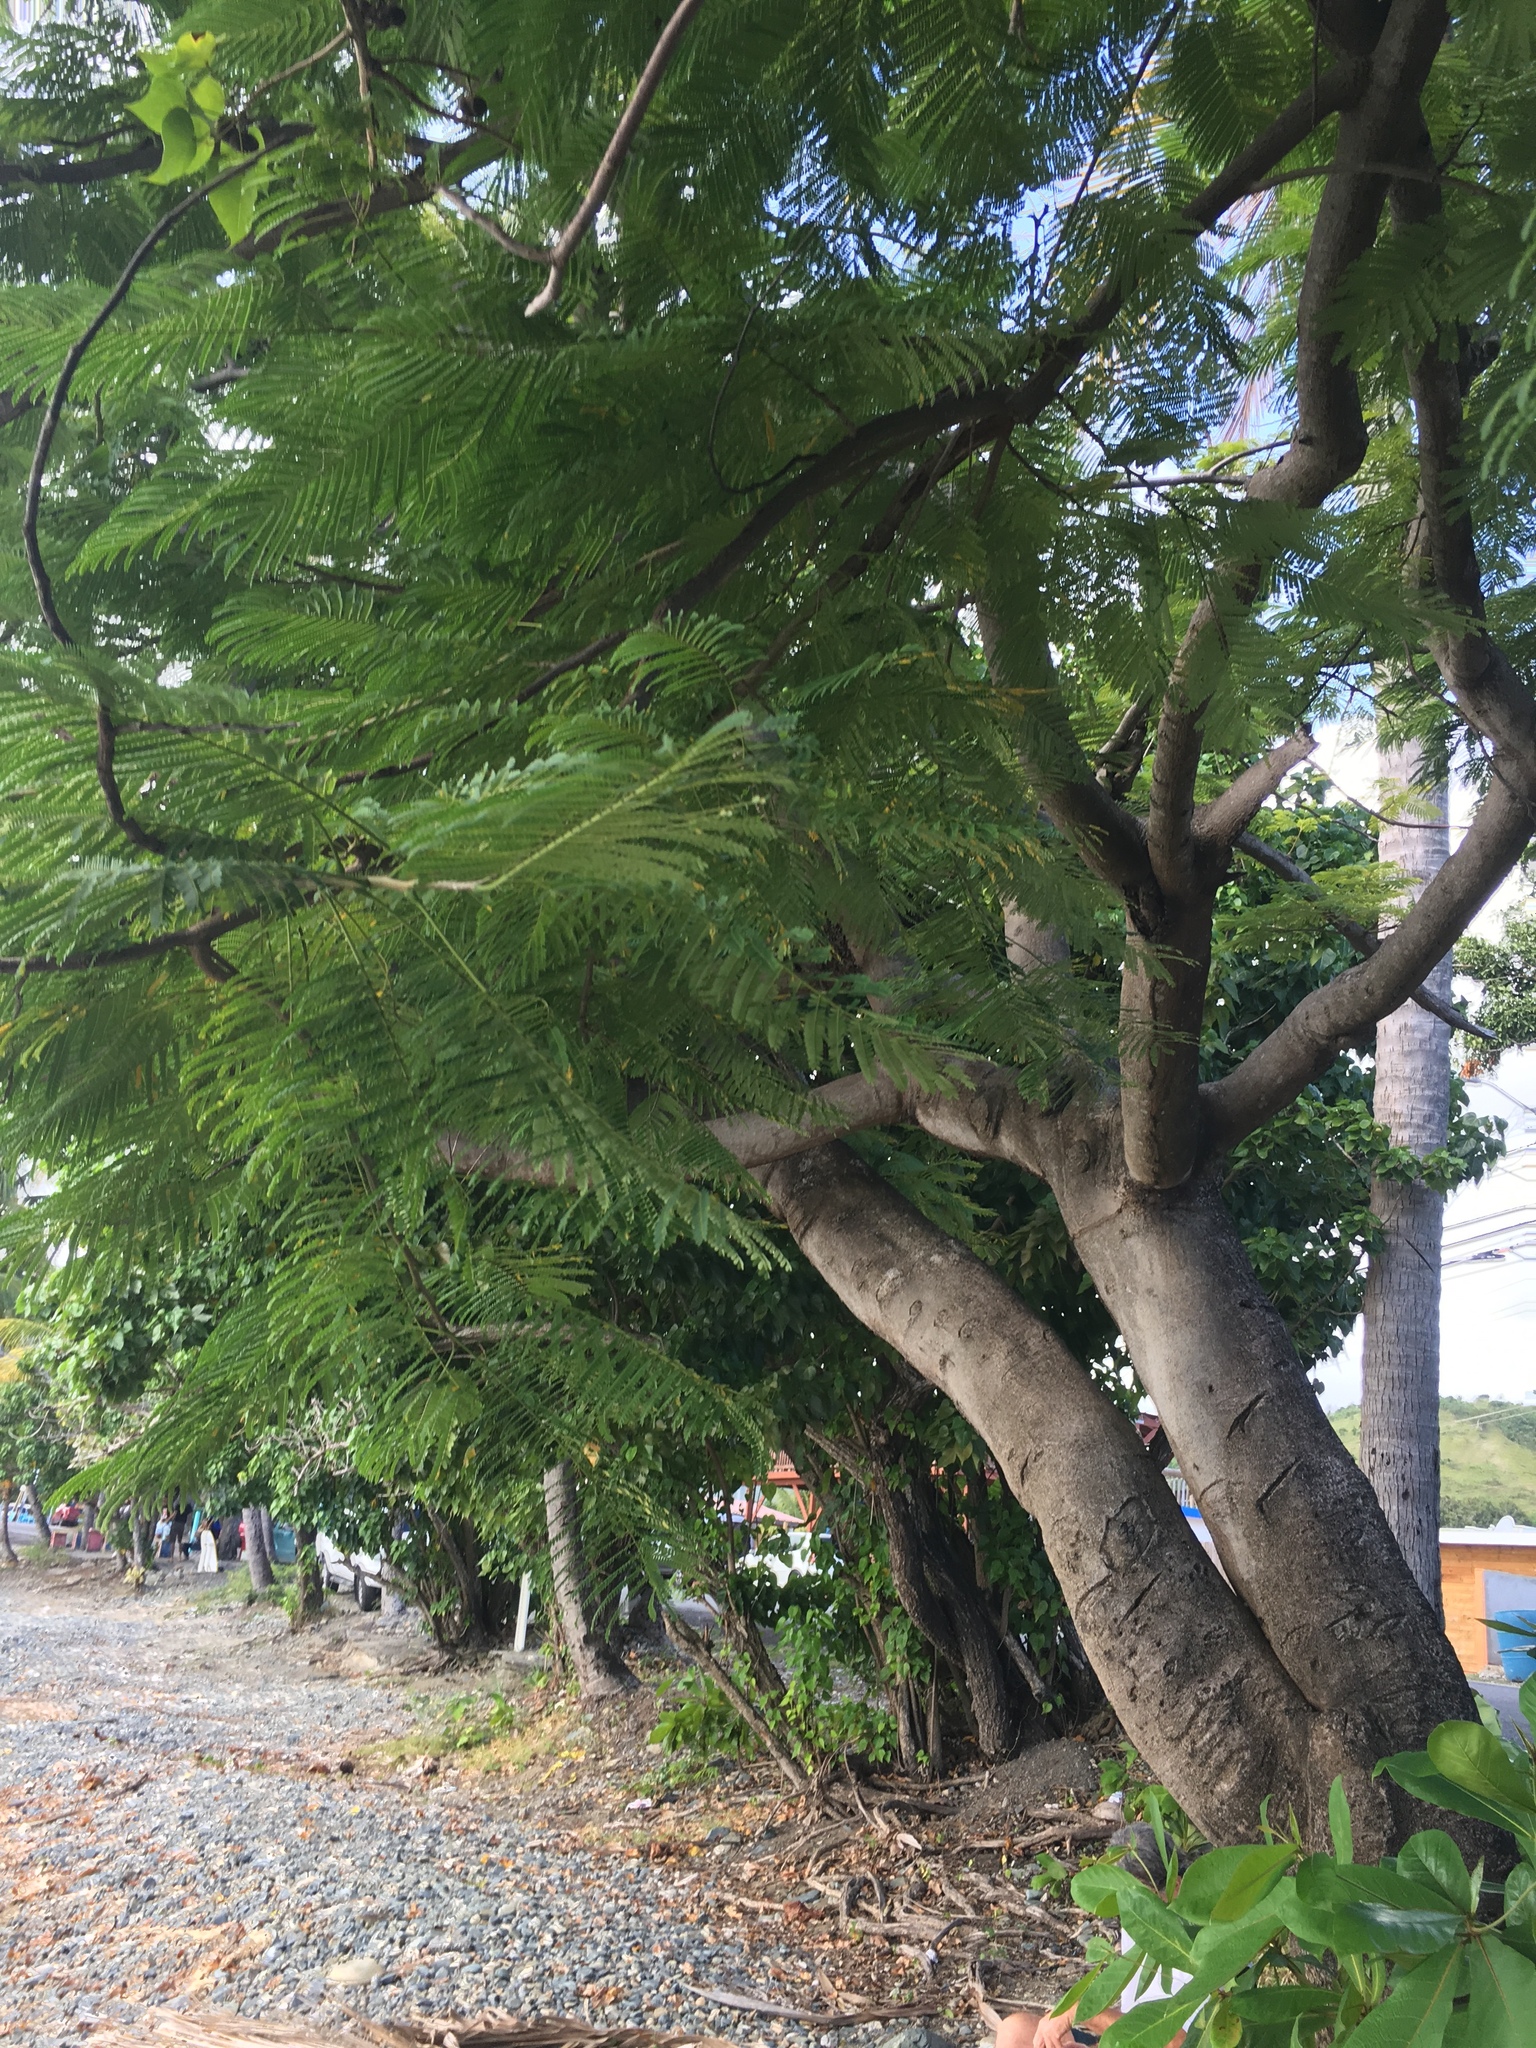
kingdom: Plantae
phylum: Tracheophyta
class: Magnoliopsida
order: Fabales
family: Fabaceae
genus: Delonix
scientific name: Delonix regia
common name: Royal poinciana
